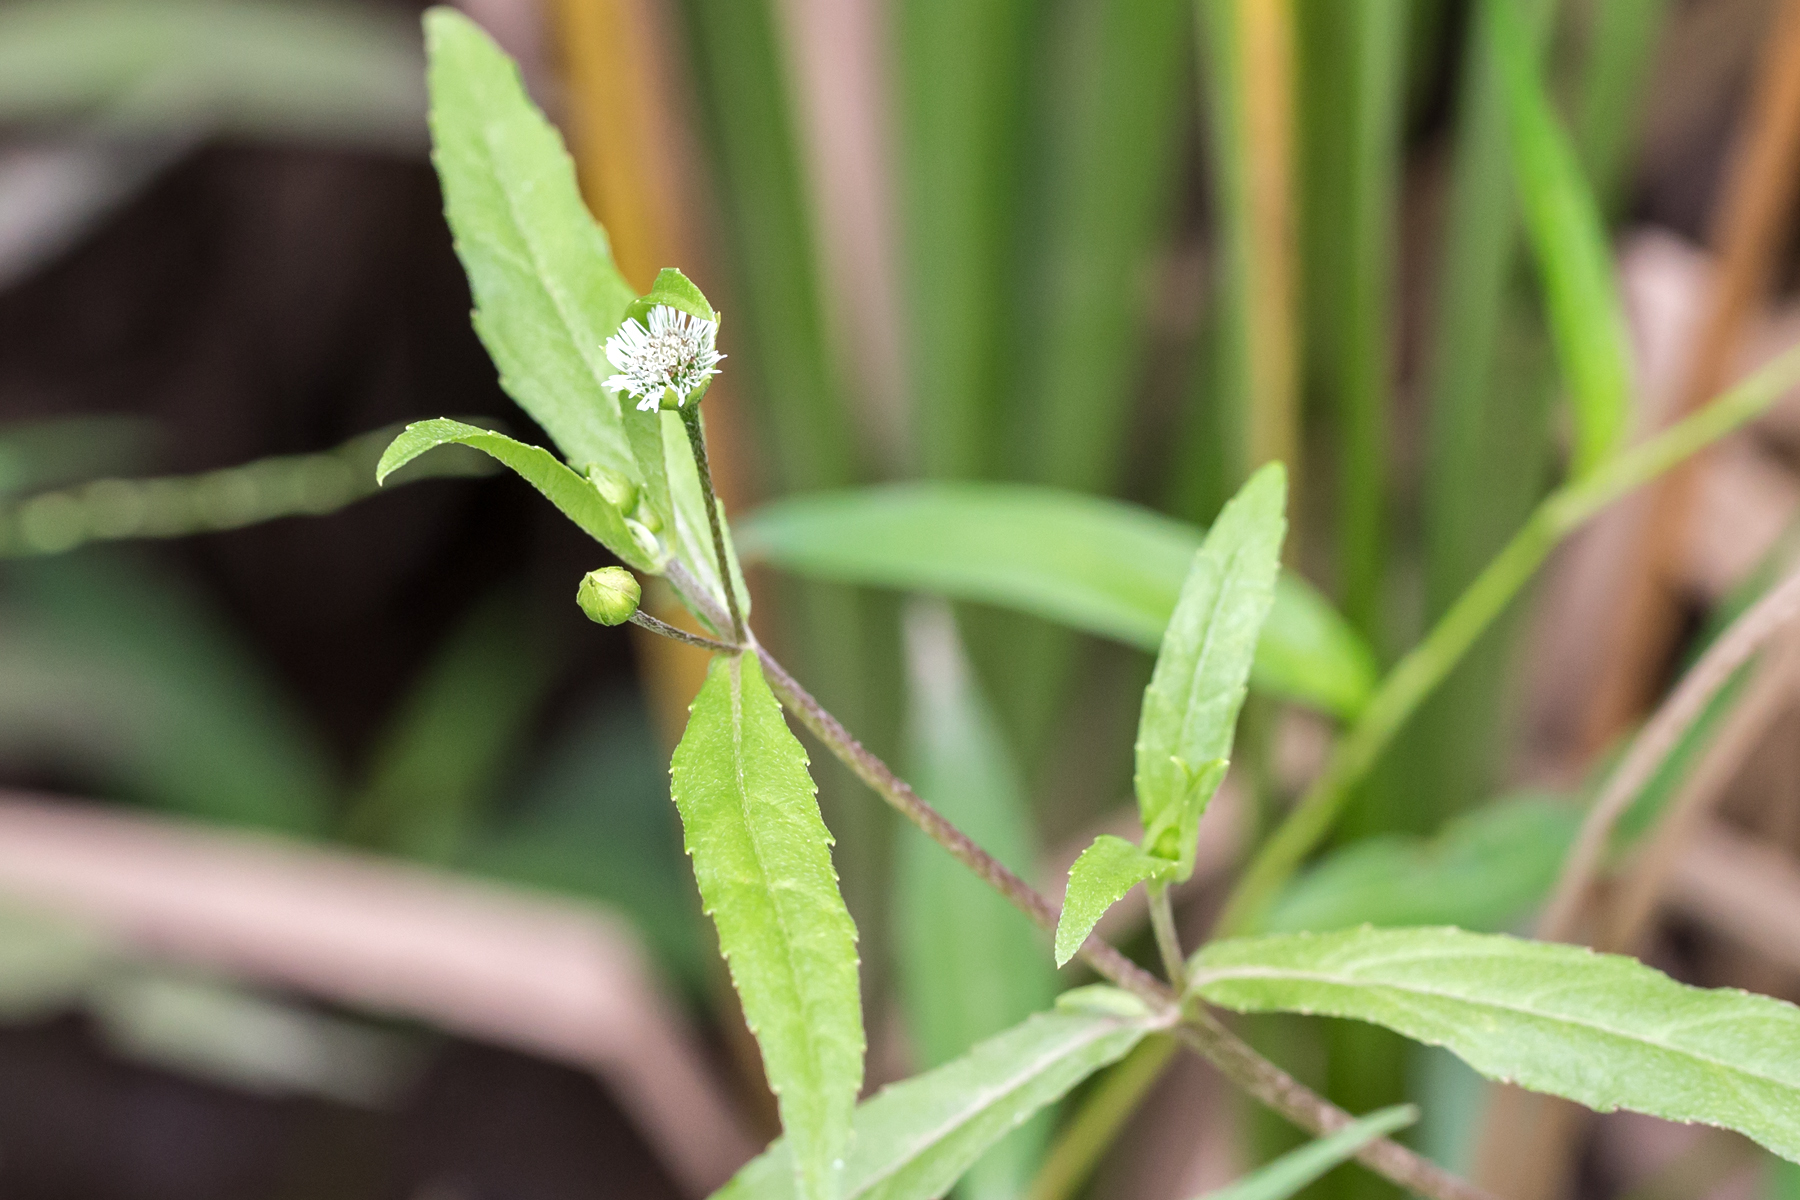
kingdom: Plantae
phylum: Tracheophyta
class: Magnoliopsida
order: Asterales
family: Asteraceae
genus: Eclipta
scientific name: Eclipta prostrata
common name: False daisy
